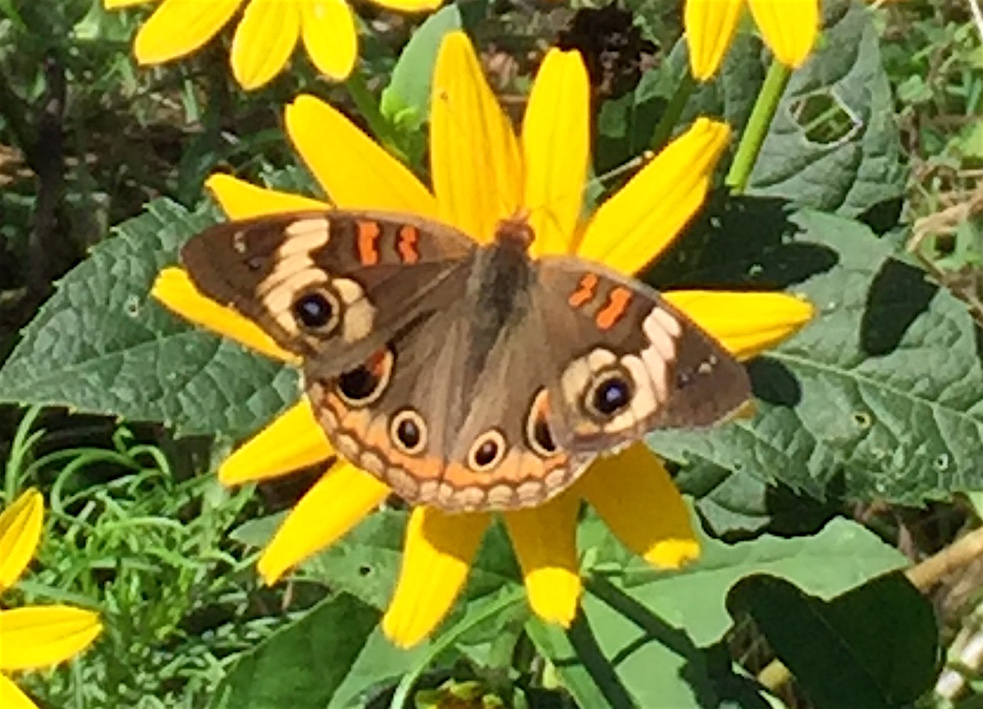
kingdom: Animalia
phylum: Arthropoda
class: Insecta
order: Lepidoptera
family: Nymphalidae
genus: Junonia
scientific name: Junonia coenia
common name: Common buckeye
